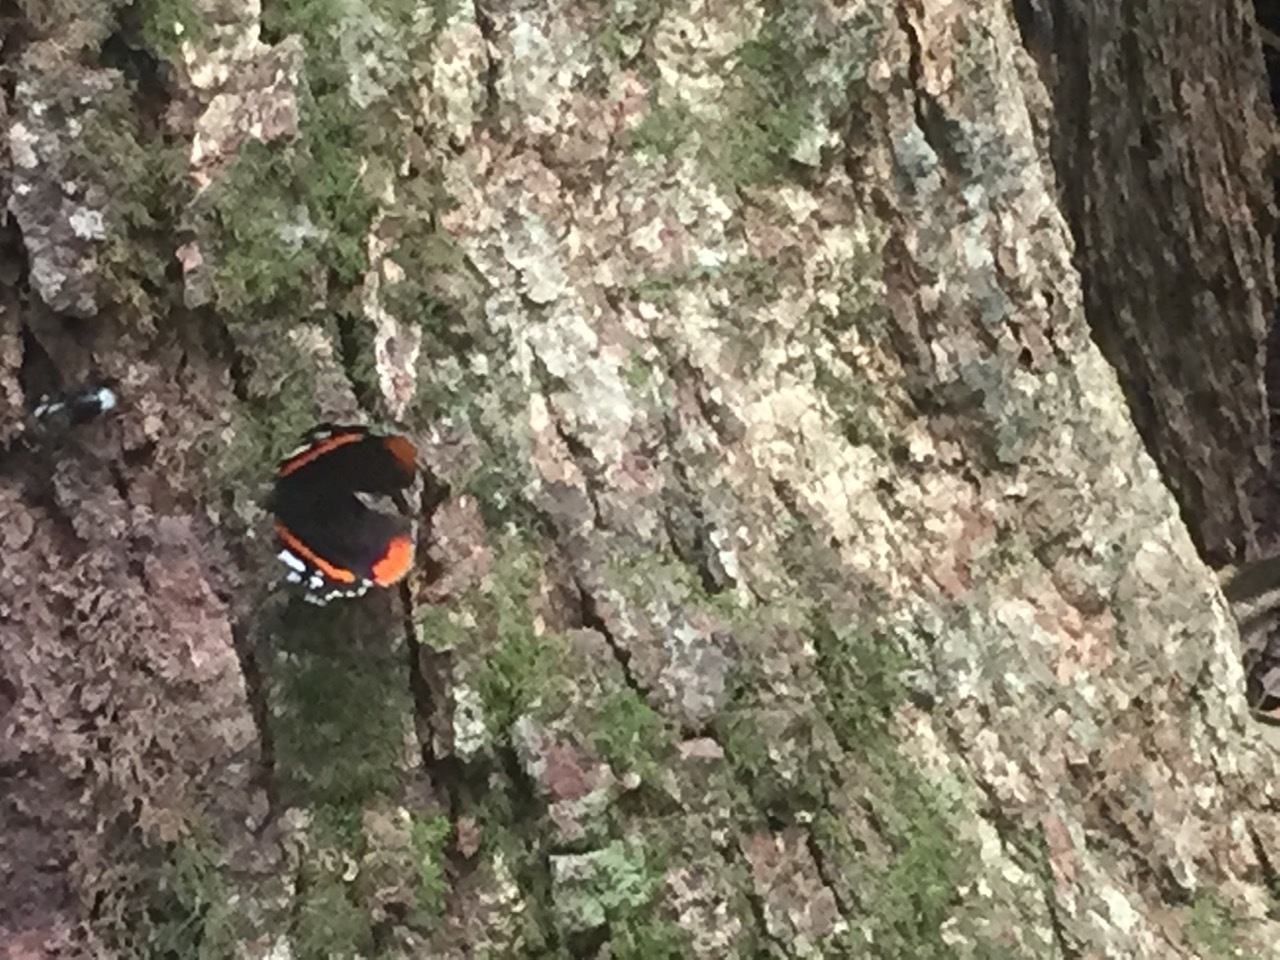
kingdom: Animalia
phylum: Arthropoda
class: Insecta
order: Lepidoptera
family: Nymphalidae
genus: Vanessa
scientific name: Vanessa atalanta
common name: Red admiral
